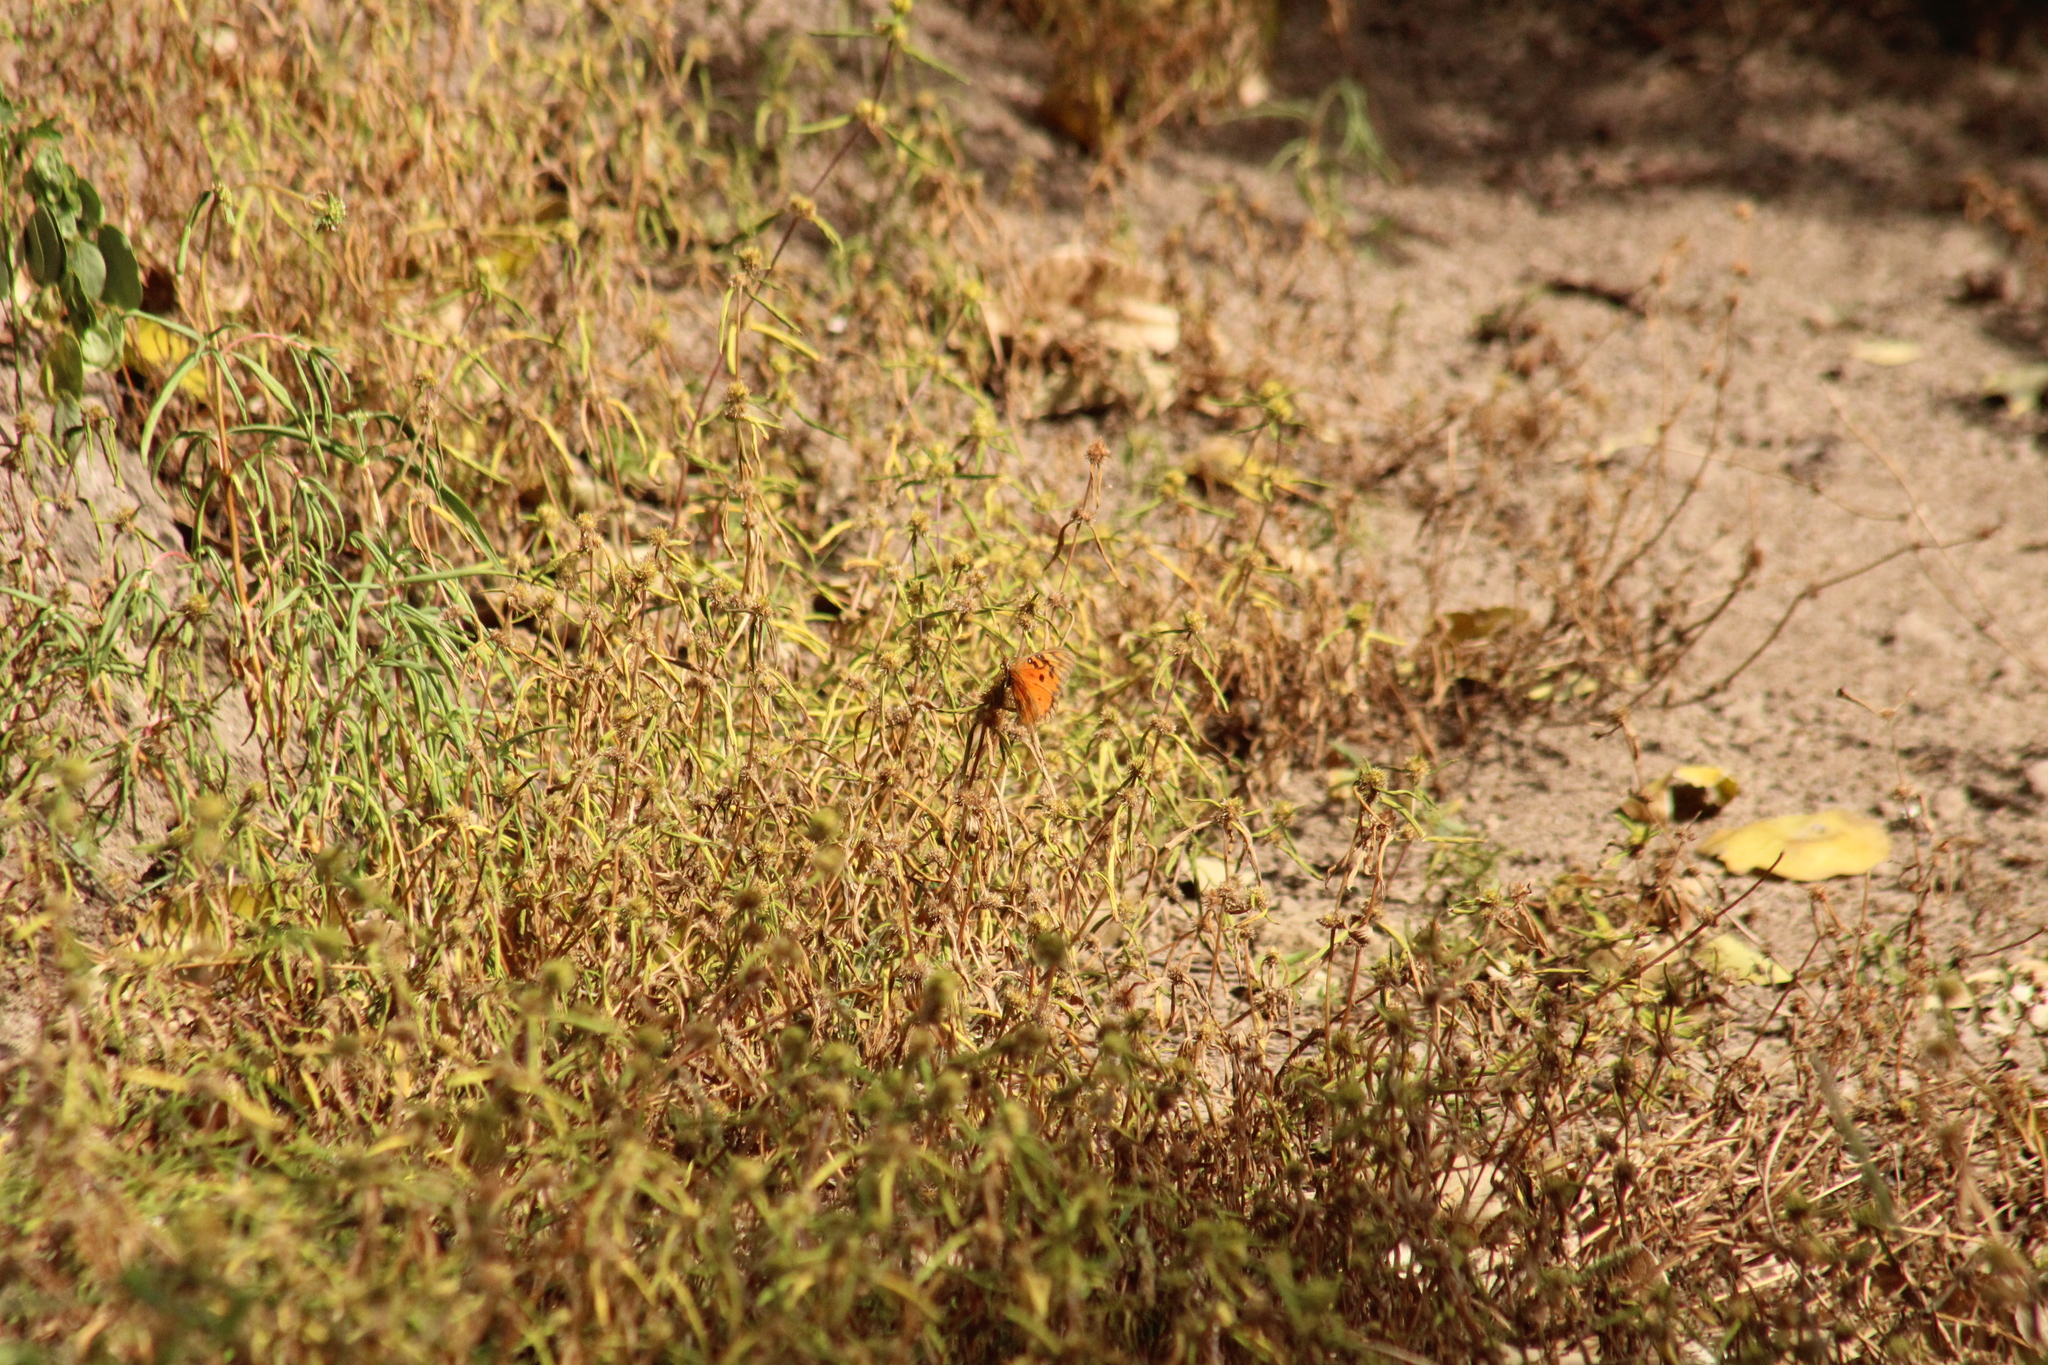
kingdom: Animalia
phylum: Arthropoda
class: Insecta
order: Lepidoptera
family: Nymphalidae
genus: Dione
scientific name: Dione vanillae
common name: Gulf fritillary
